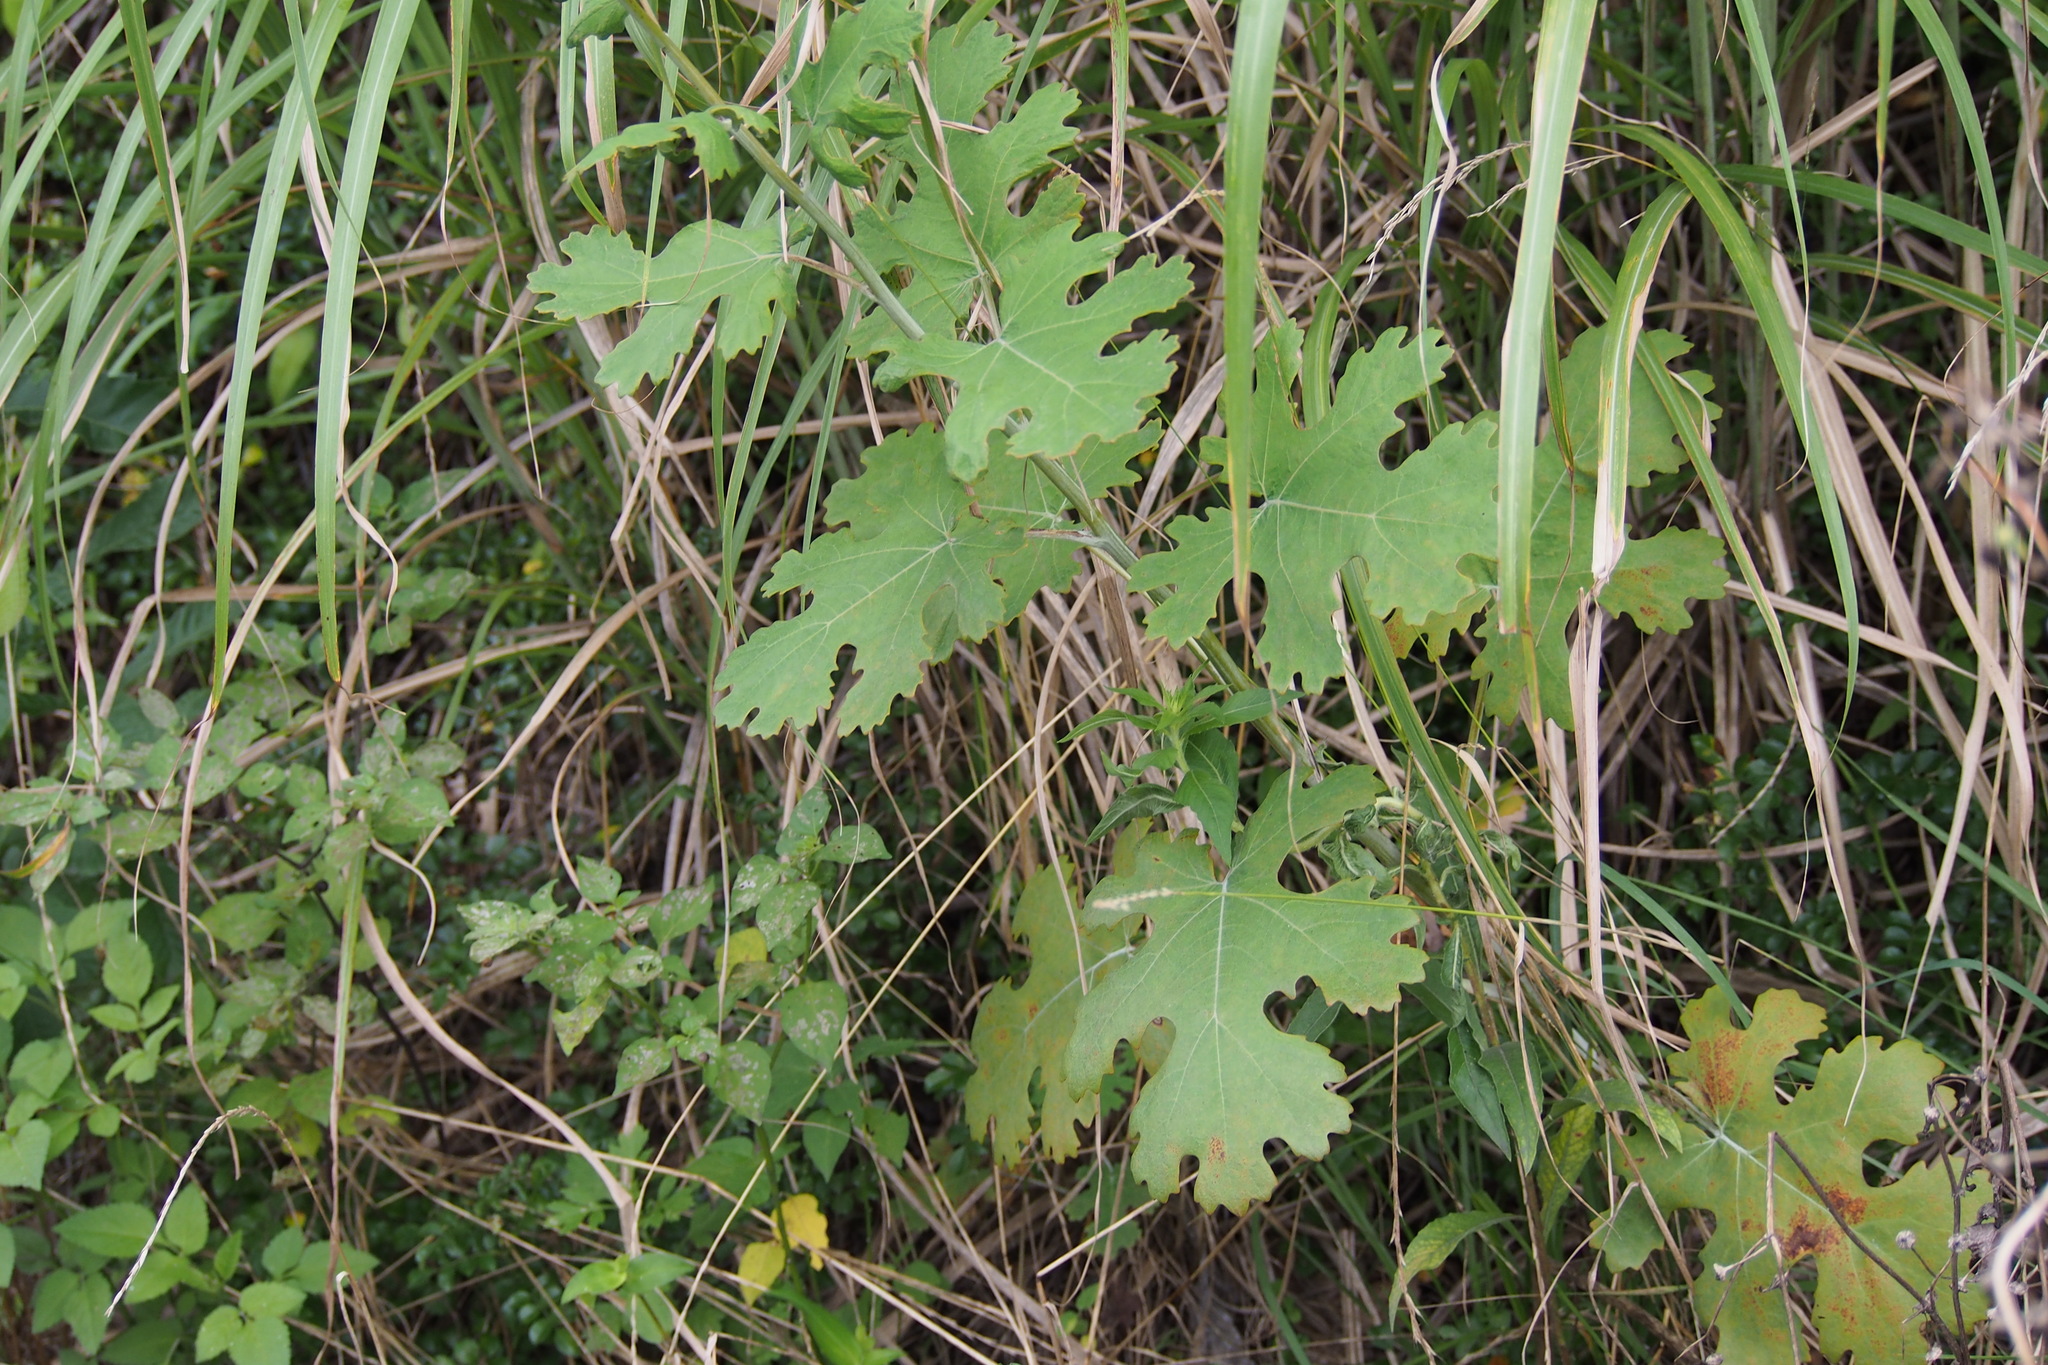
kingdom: Plantae
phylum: Tracheophyta
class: Magnoliopsida
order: Ranunculales
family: Papaveraceae
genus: Macleaya
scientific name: Macleaya cordata
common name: Plume poppy
